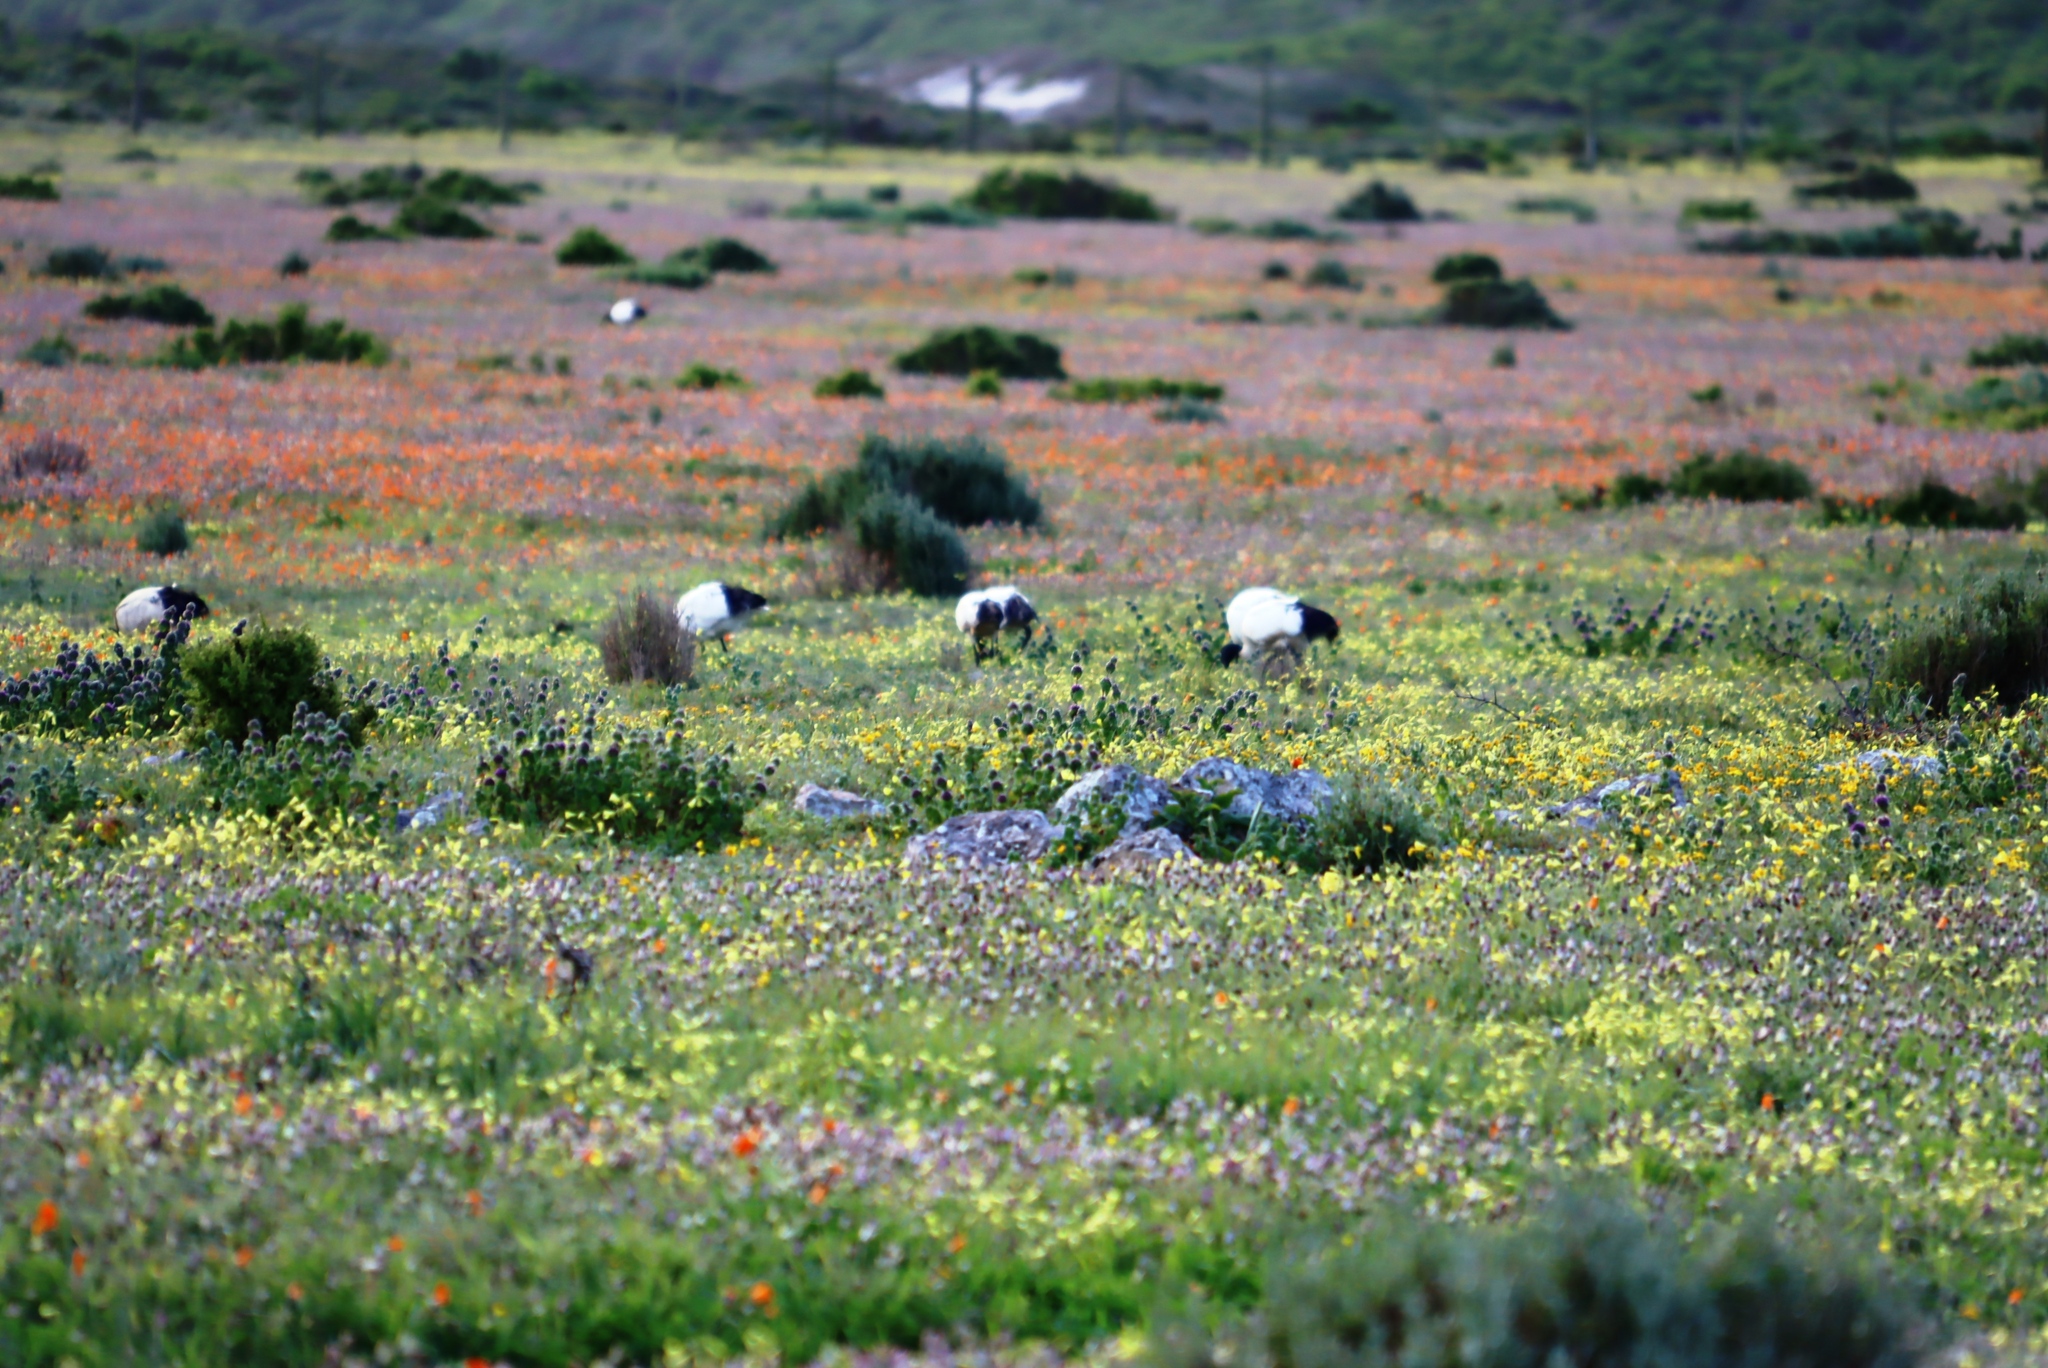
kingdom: Animalia
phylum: Chordata
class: Aves
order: Pelecaniformes
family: Threskiornithidae
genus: Threskiornis
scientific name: Threskiornis aethiopicus
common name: Sacred ibis
